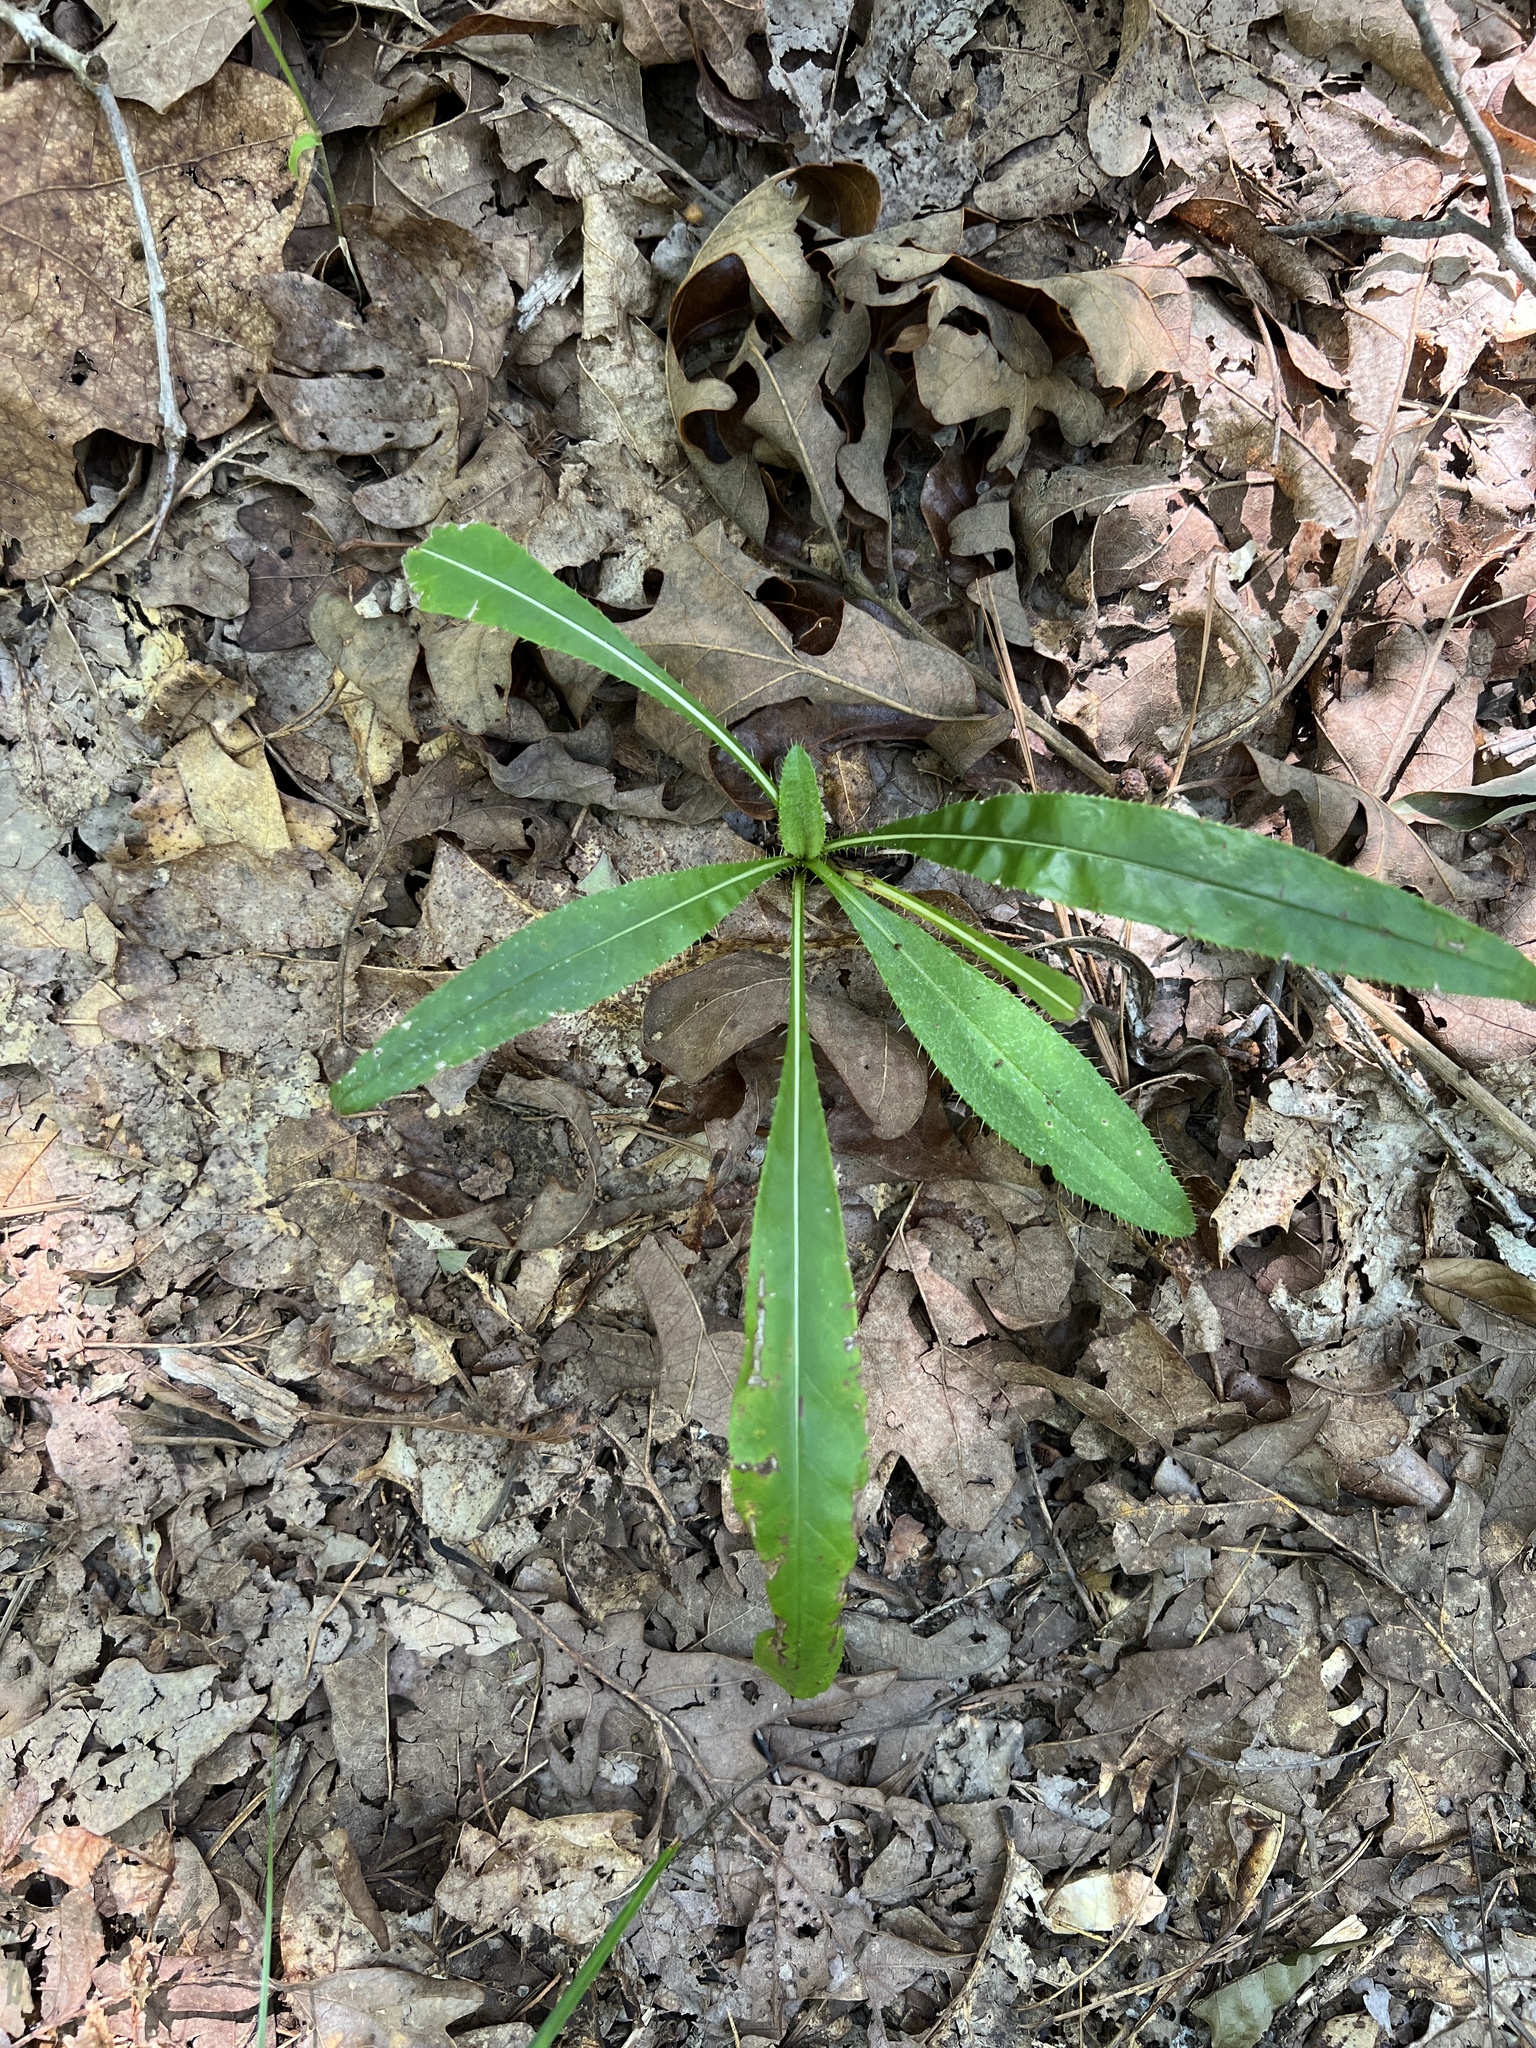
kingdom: Plantae
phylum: Tracheophyta
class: Magnoliopsida
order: Asterales
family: Asteraceae
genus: Cirsium
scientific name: Cirsium carolinianum
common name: Carolina thistle
